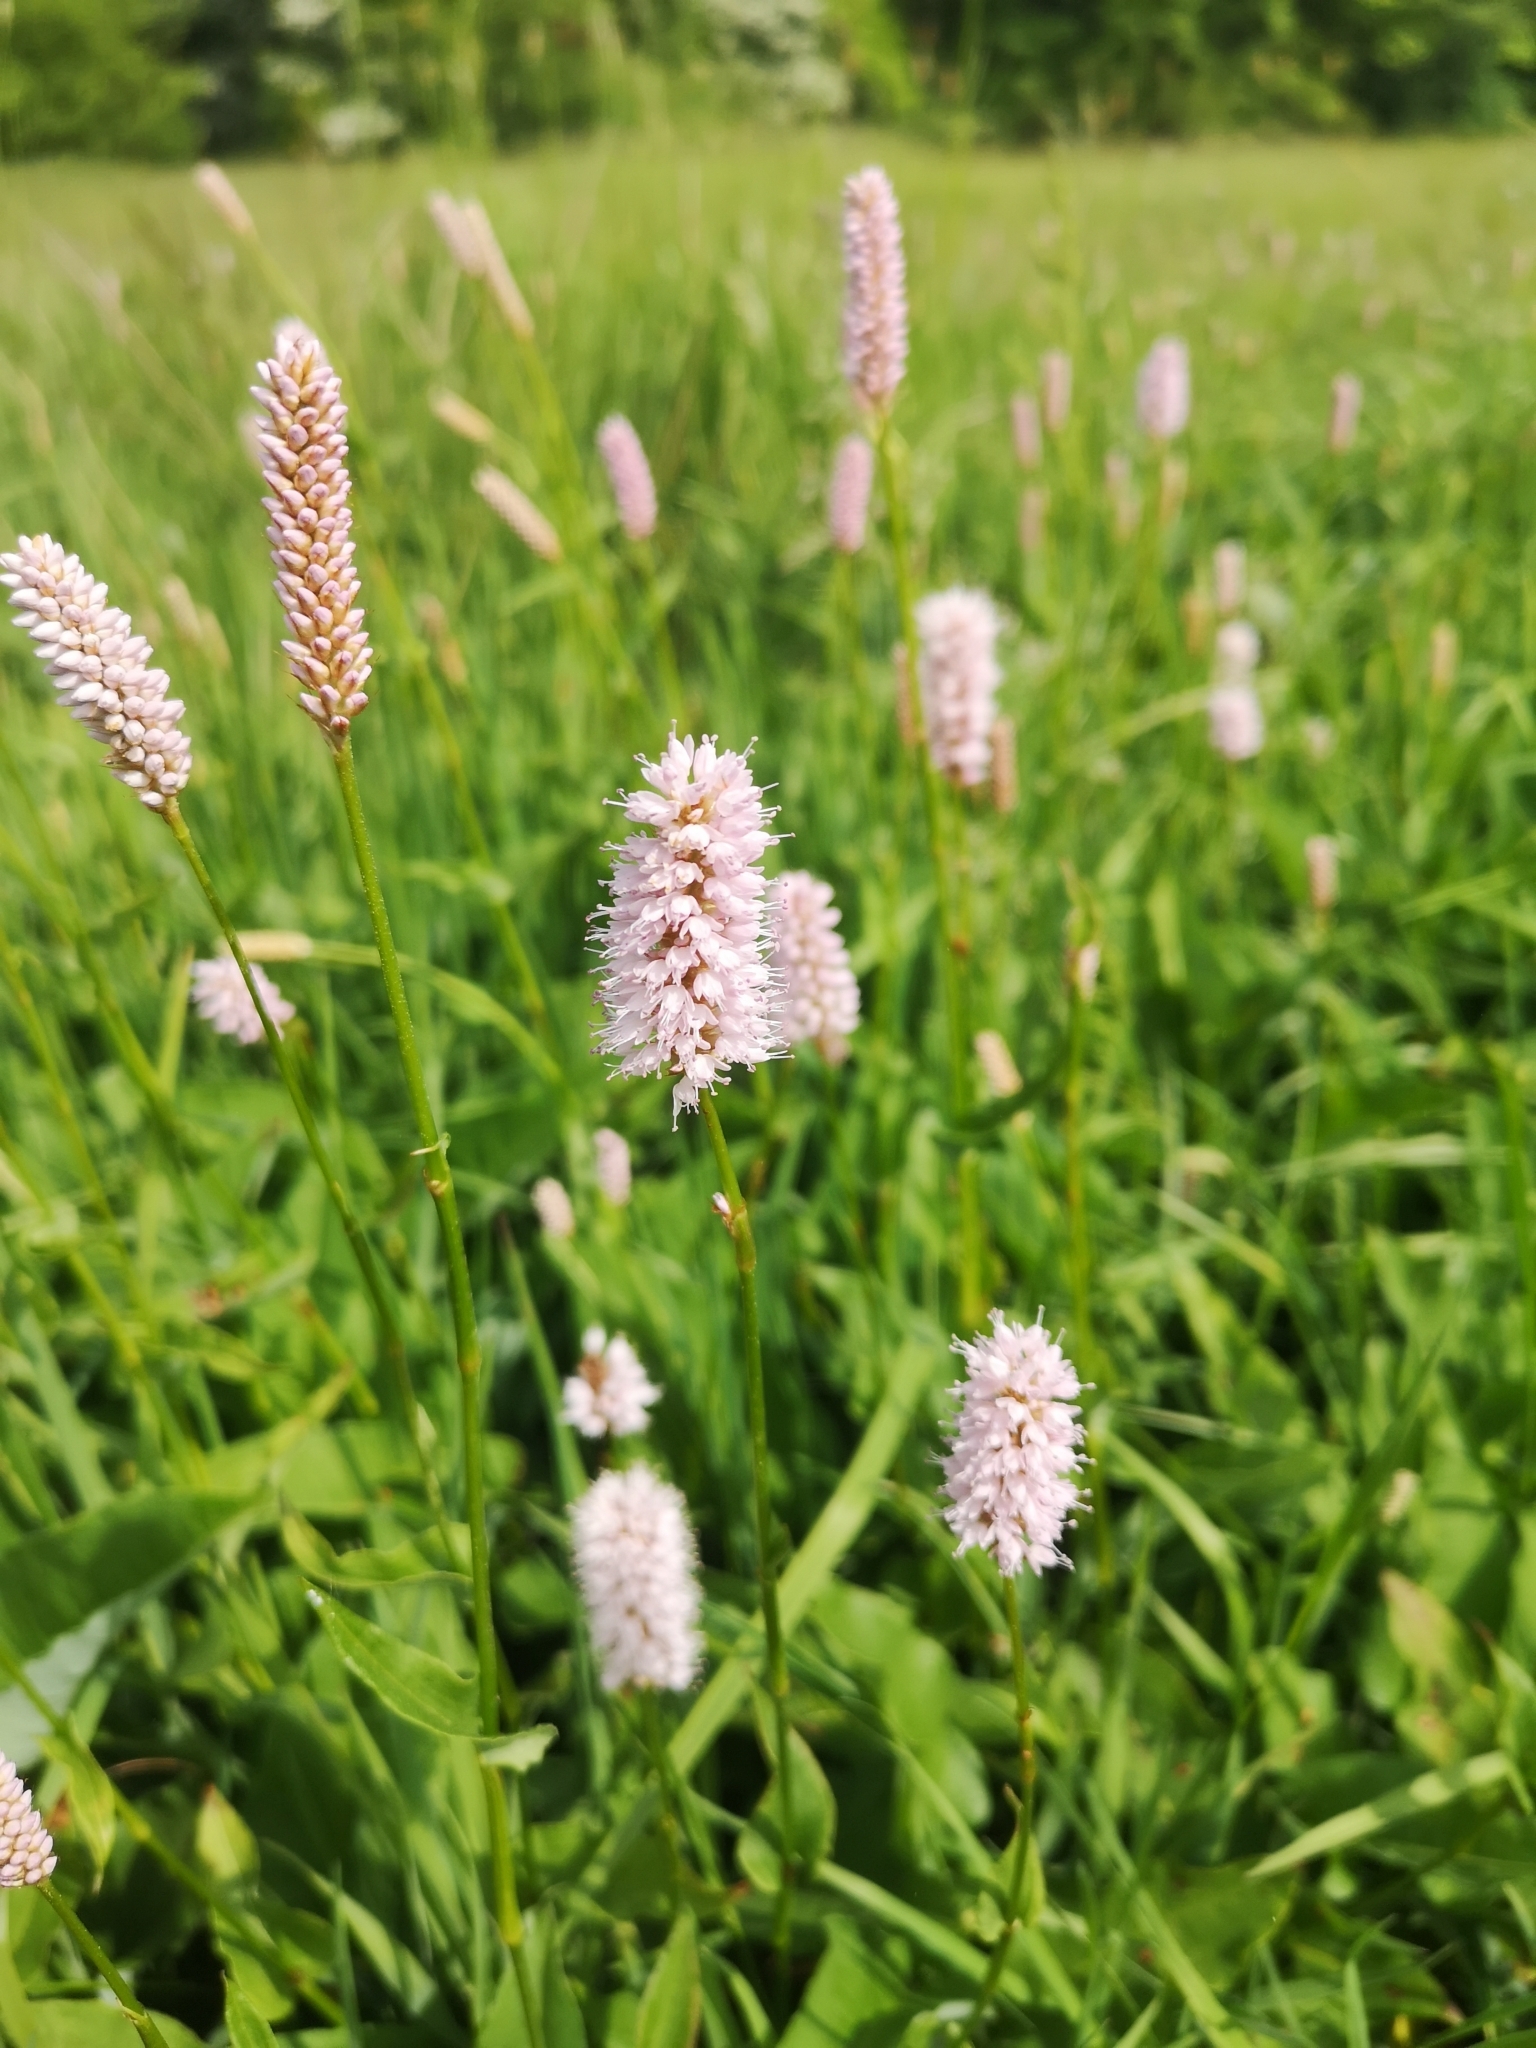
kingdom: Plantae
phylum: Tracheophyta
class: Magnoliopsida
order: Caryophyllales
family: Polygonaceae
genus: Bistorta
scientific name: Bistorta officinalis
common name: Common bistort
